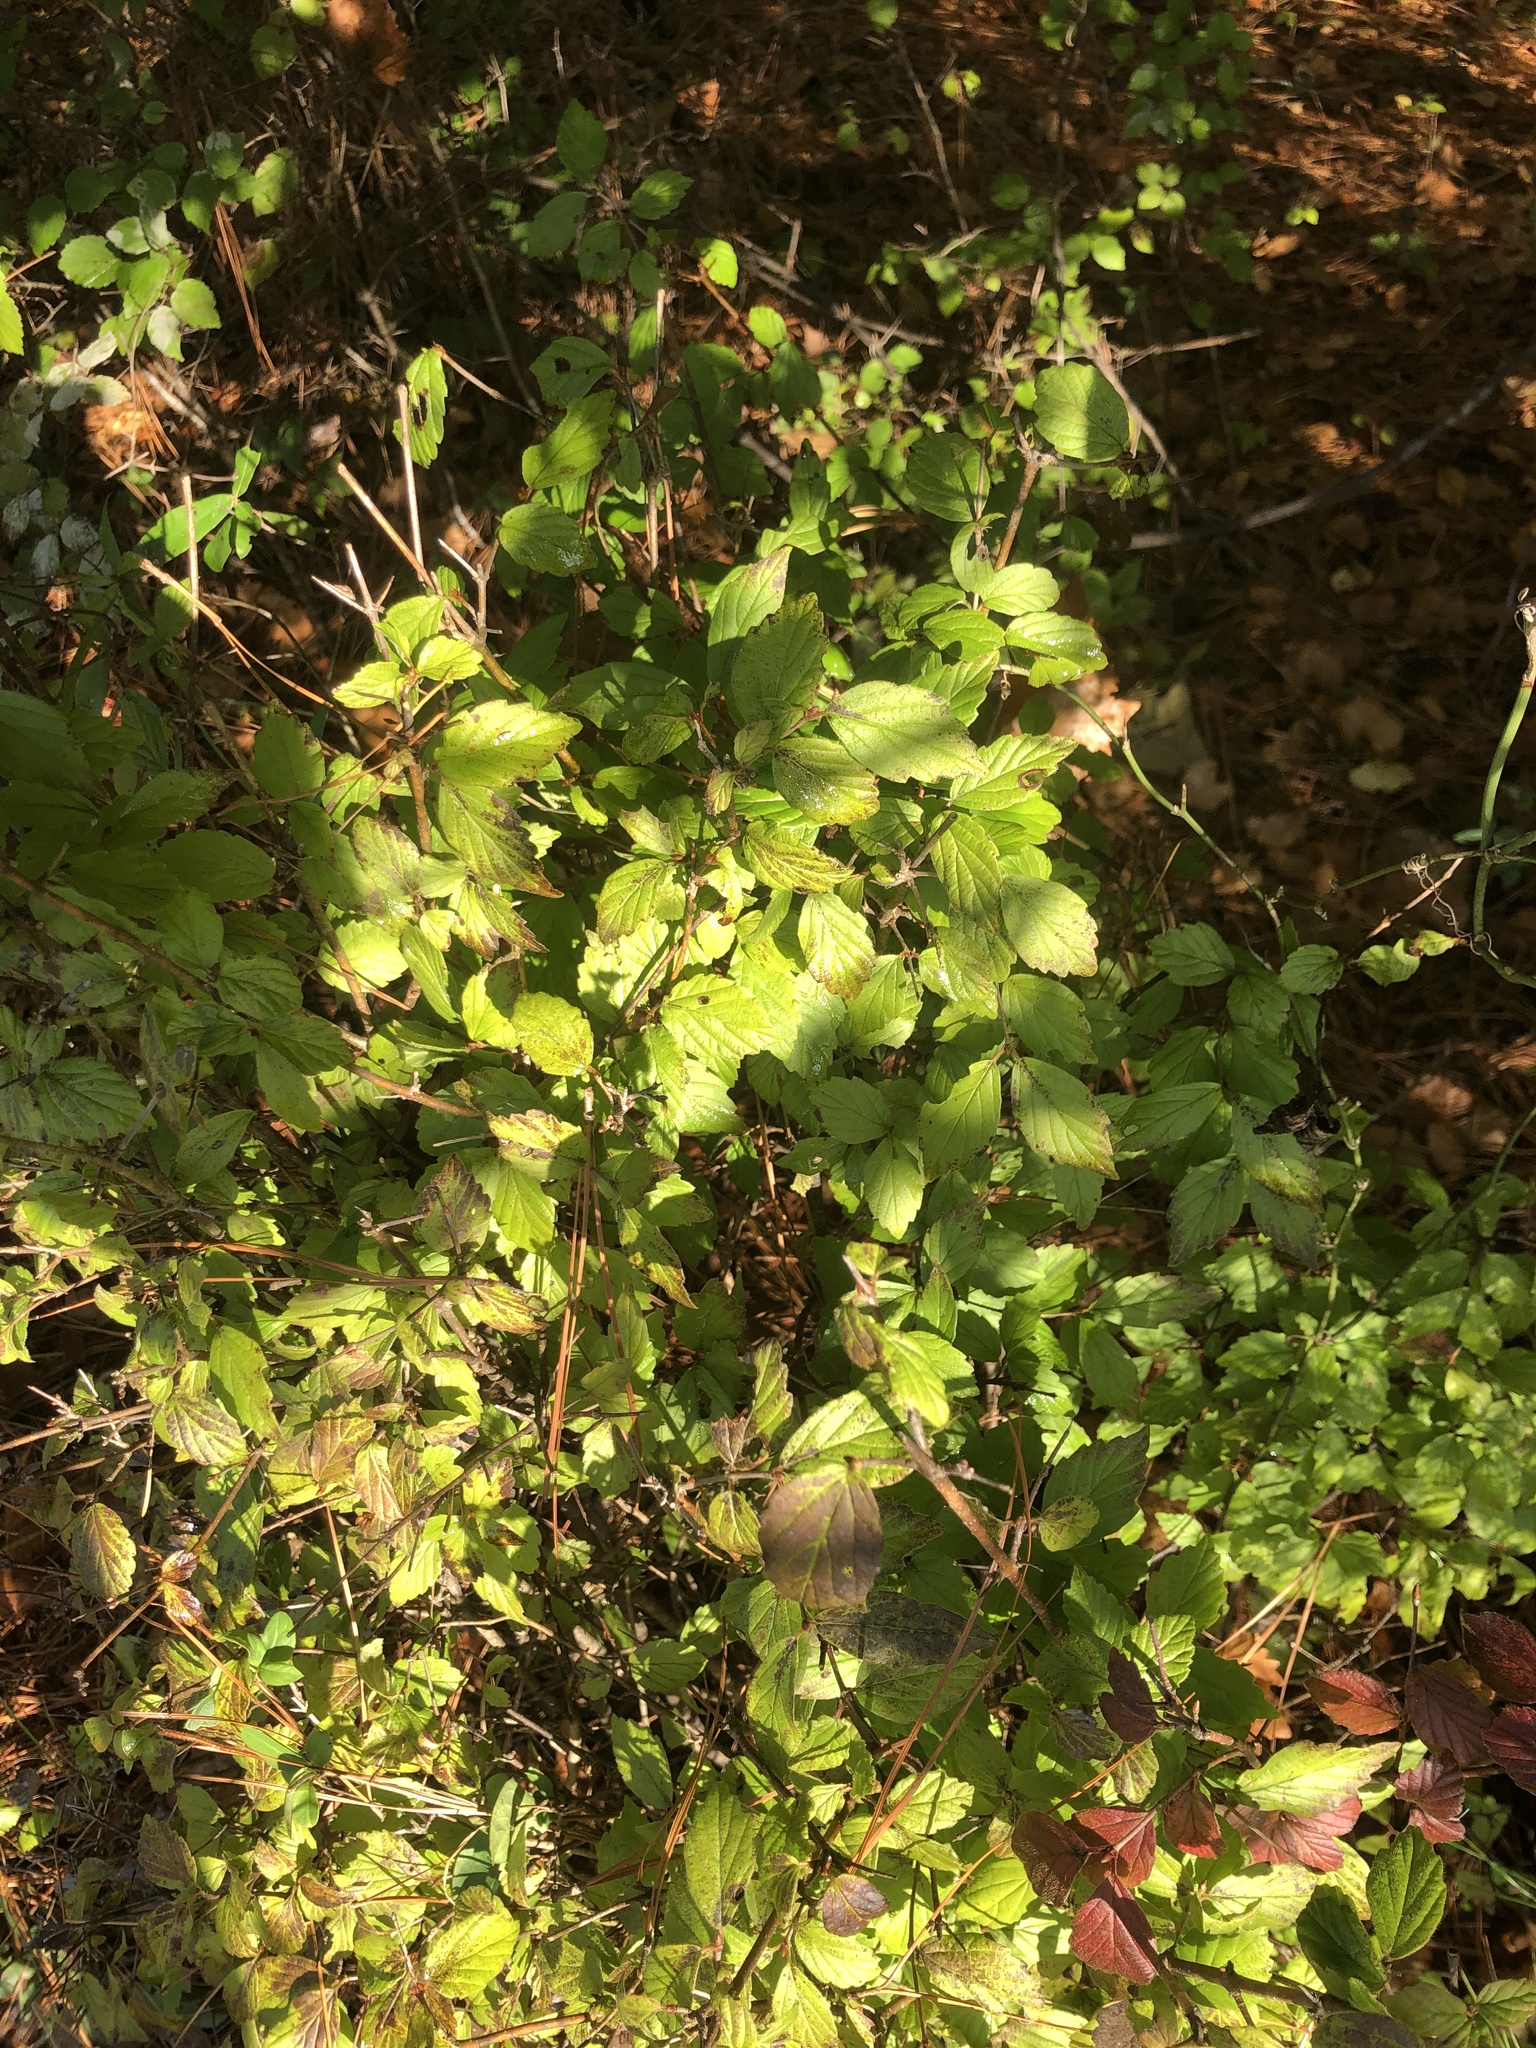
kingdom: Plantae
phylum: Tracheophyta
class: Magnoliopsida
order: Dipsacales
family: Viburnaceae
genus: Viburnum
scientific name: Viburnum rafinesqueanum
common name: Downy arrow-wood
